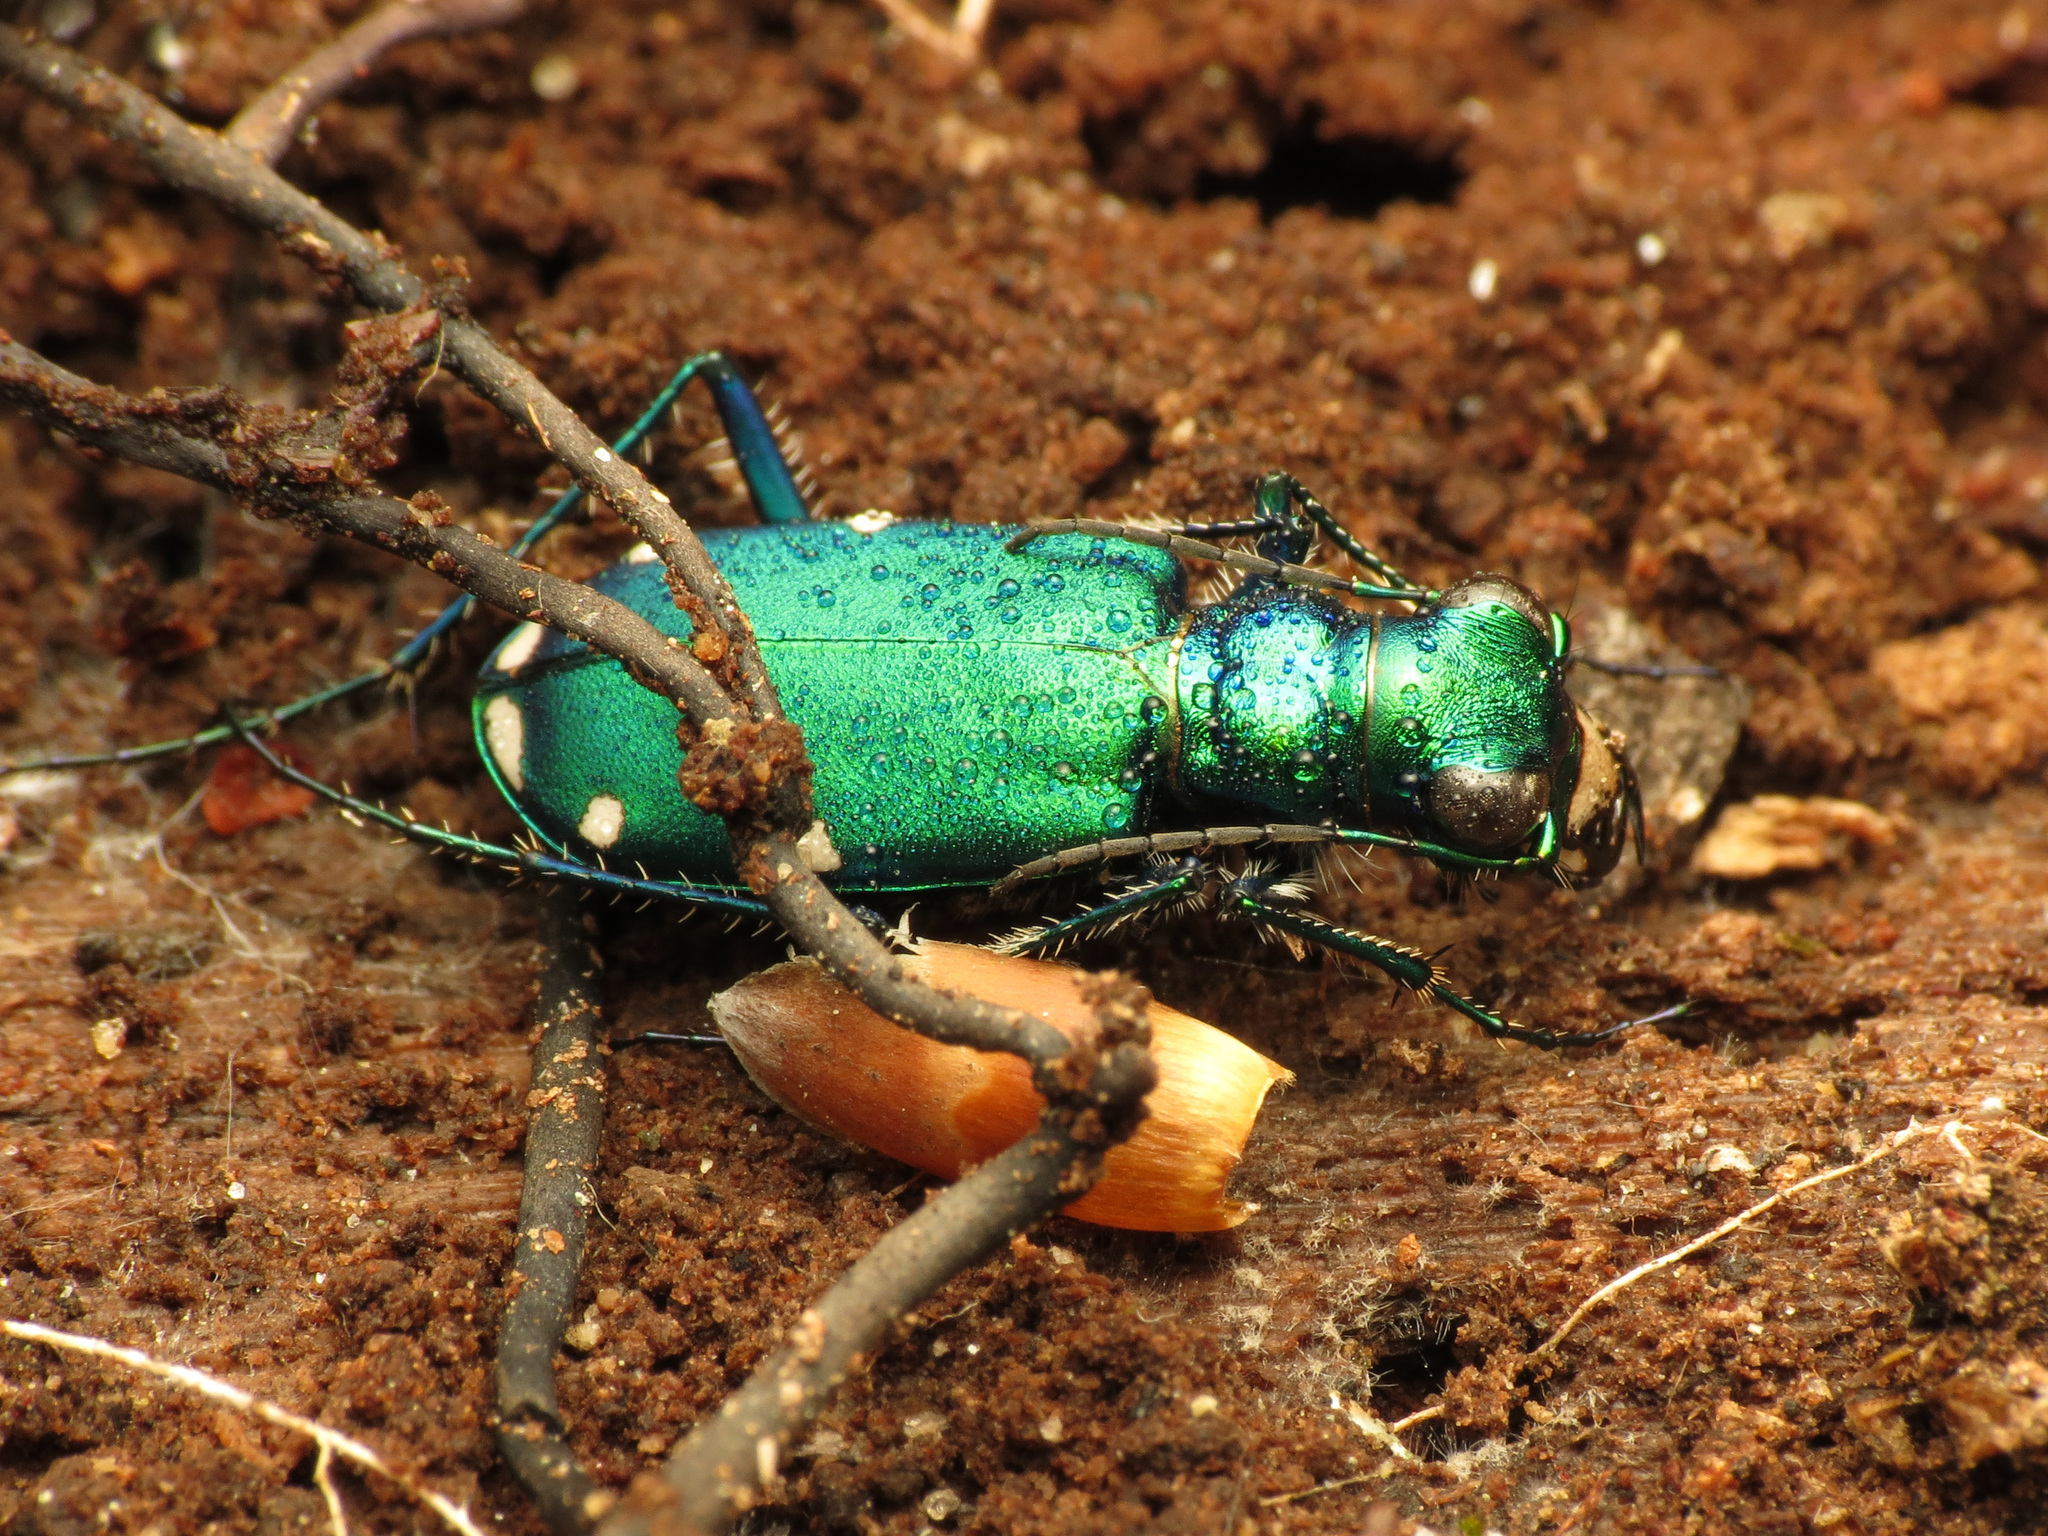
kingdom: Animalia
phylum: Arthropoda
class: Insecta
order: Coleoptera
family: Carabidae
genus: Cicindela
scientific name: Cicindela sexguttata
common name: Six-spotted tiger beetle
